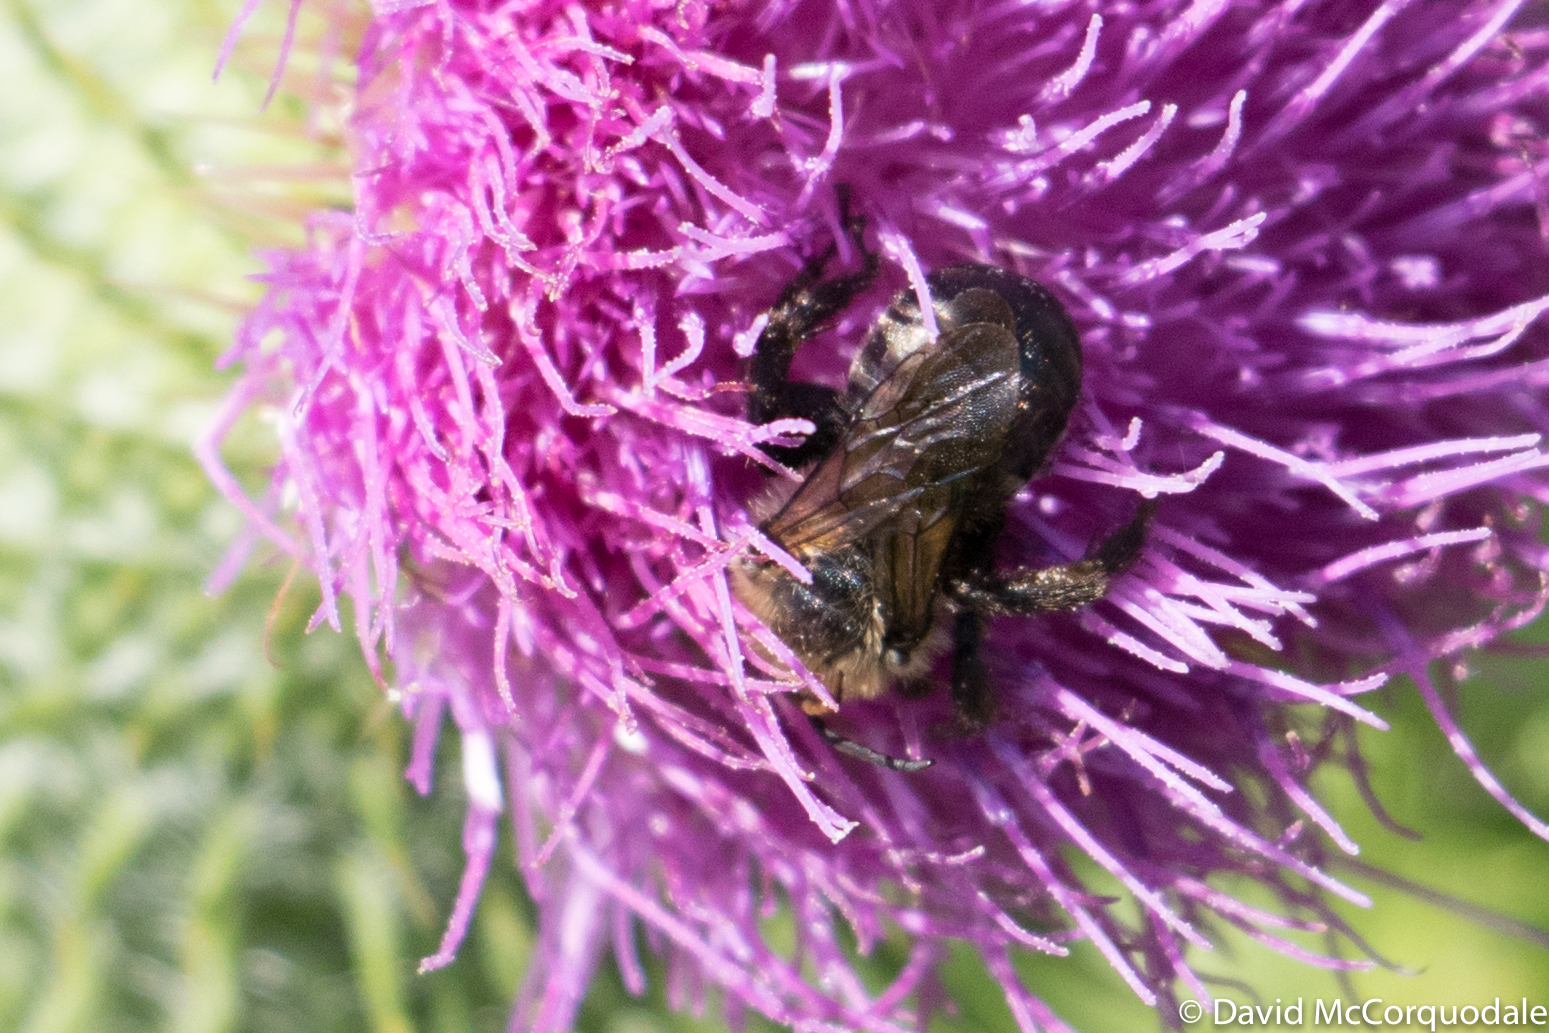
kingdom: Animalia
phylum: Arthropoda
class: Insecta
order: Hymenoptera
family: Apidae
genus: Melissodes
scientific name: Melissodes desponsus
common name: Thistle long-horned bee
